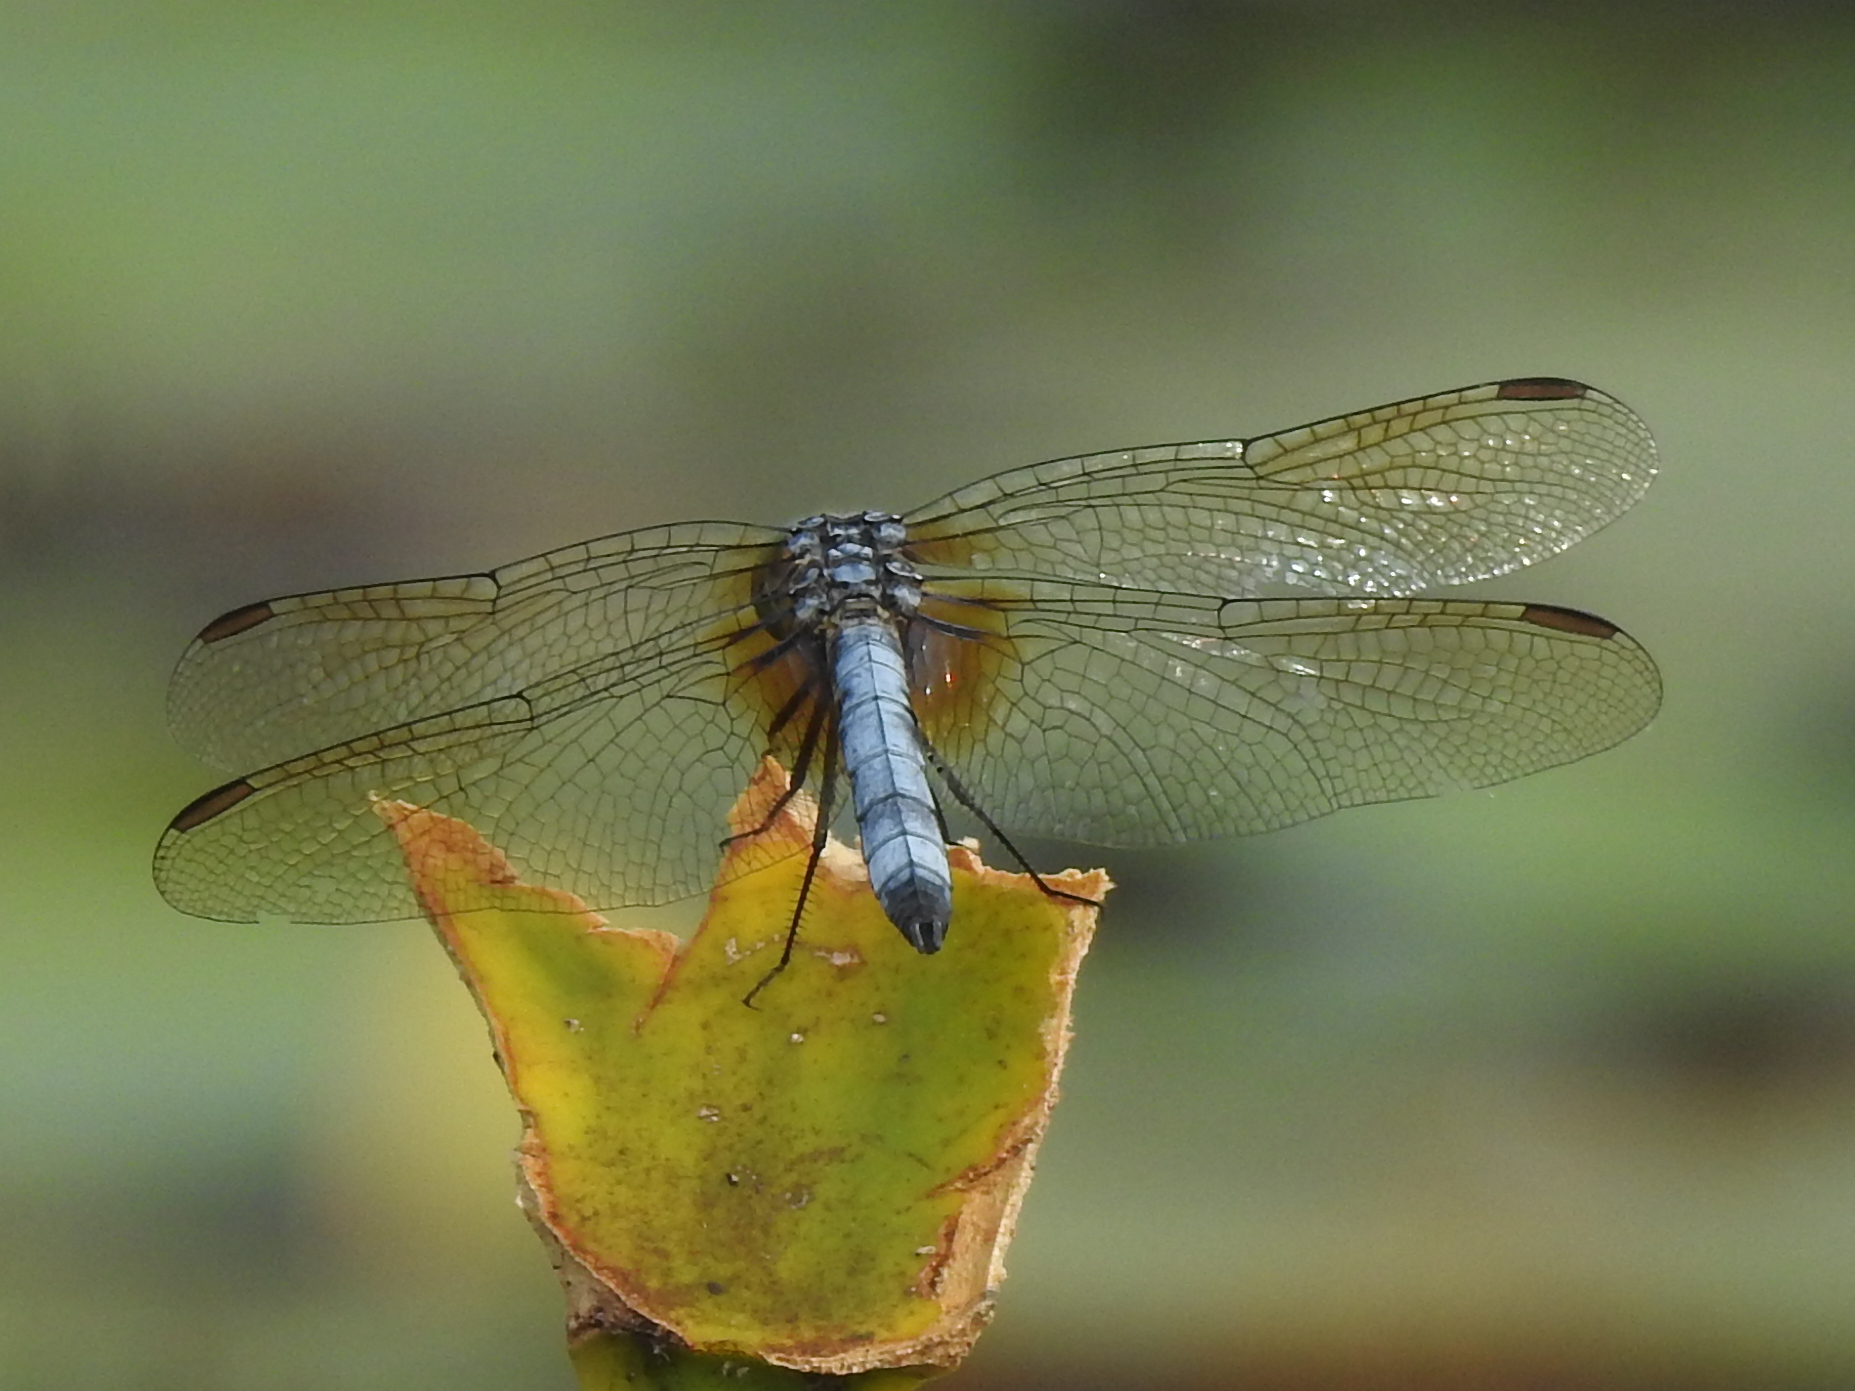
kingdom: Animalia
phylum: Arthropoda
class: Insecta
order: Odonata
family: Libellulidae
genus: Pachydiplax
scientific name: Pachydiplax longipennis
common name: Blue dasher
